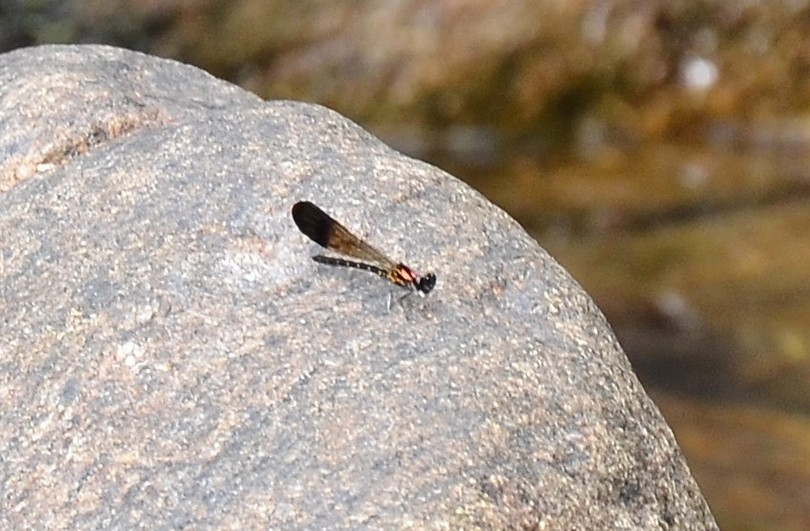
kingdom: Animalia
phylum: Arthropoda
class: Insecta
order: Odonata
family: Chlorocyphidae
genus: Heliocypha
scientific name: Heliocypha bisignata
